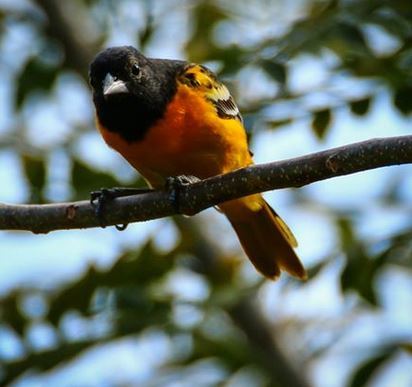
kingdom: Animalia
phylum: Chordata
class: Aves
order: Passeriformes
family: Icteridae
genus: Icterus
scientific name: Icterus galbula
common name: Baltimore oriole
